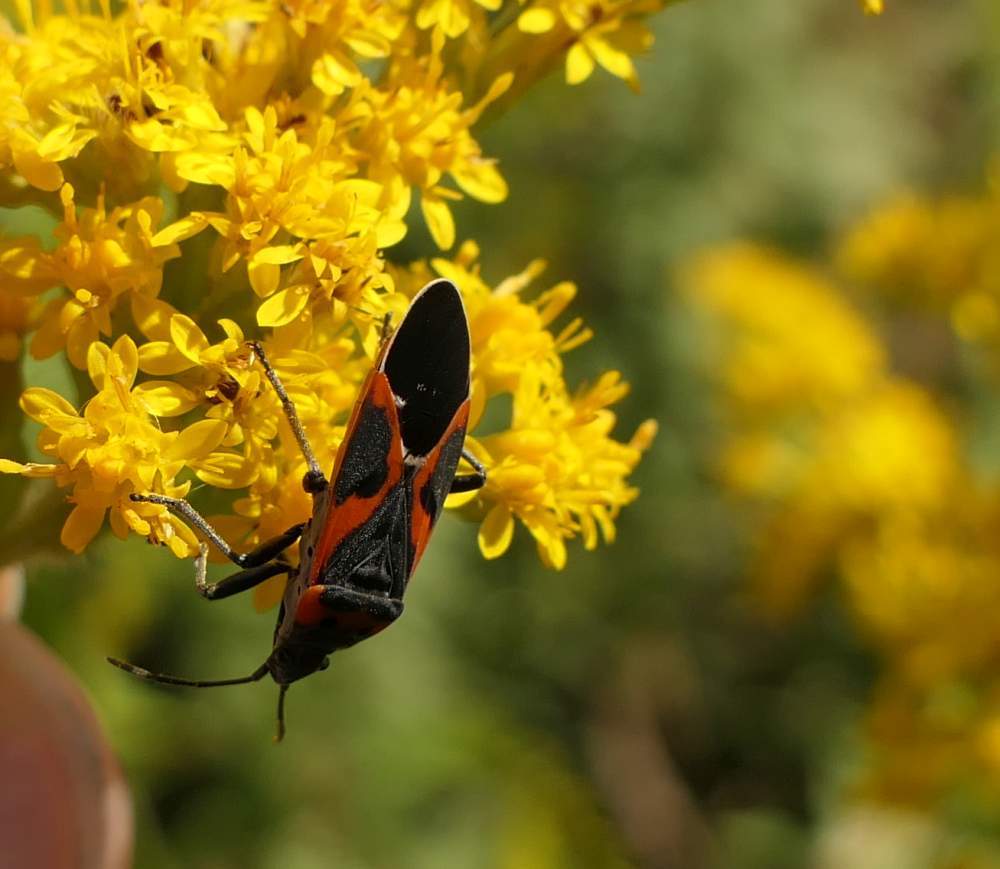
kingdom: Animalia
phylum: Arthropoda
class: Insecta
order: Hemiptera
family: Lygaeidae
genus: Lygaeus
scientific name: Lygaeus kalmii
